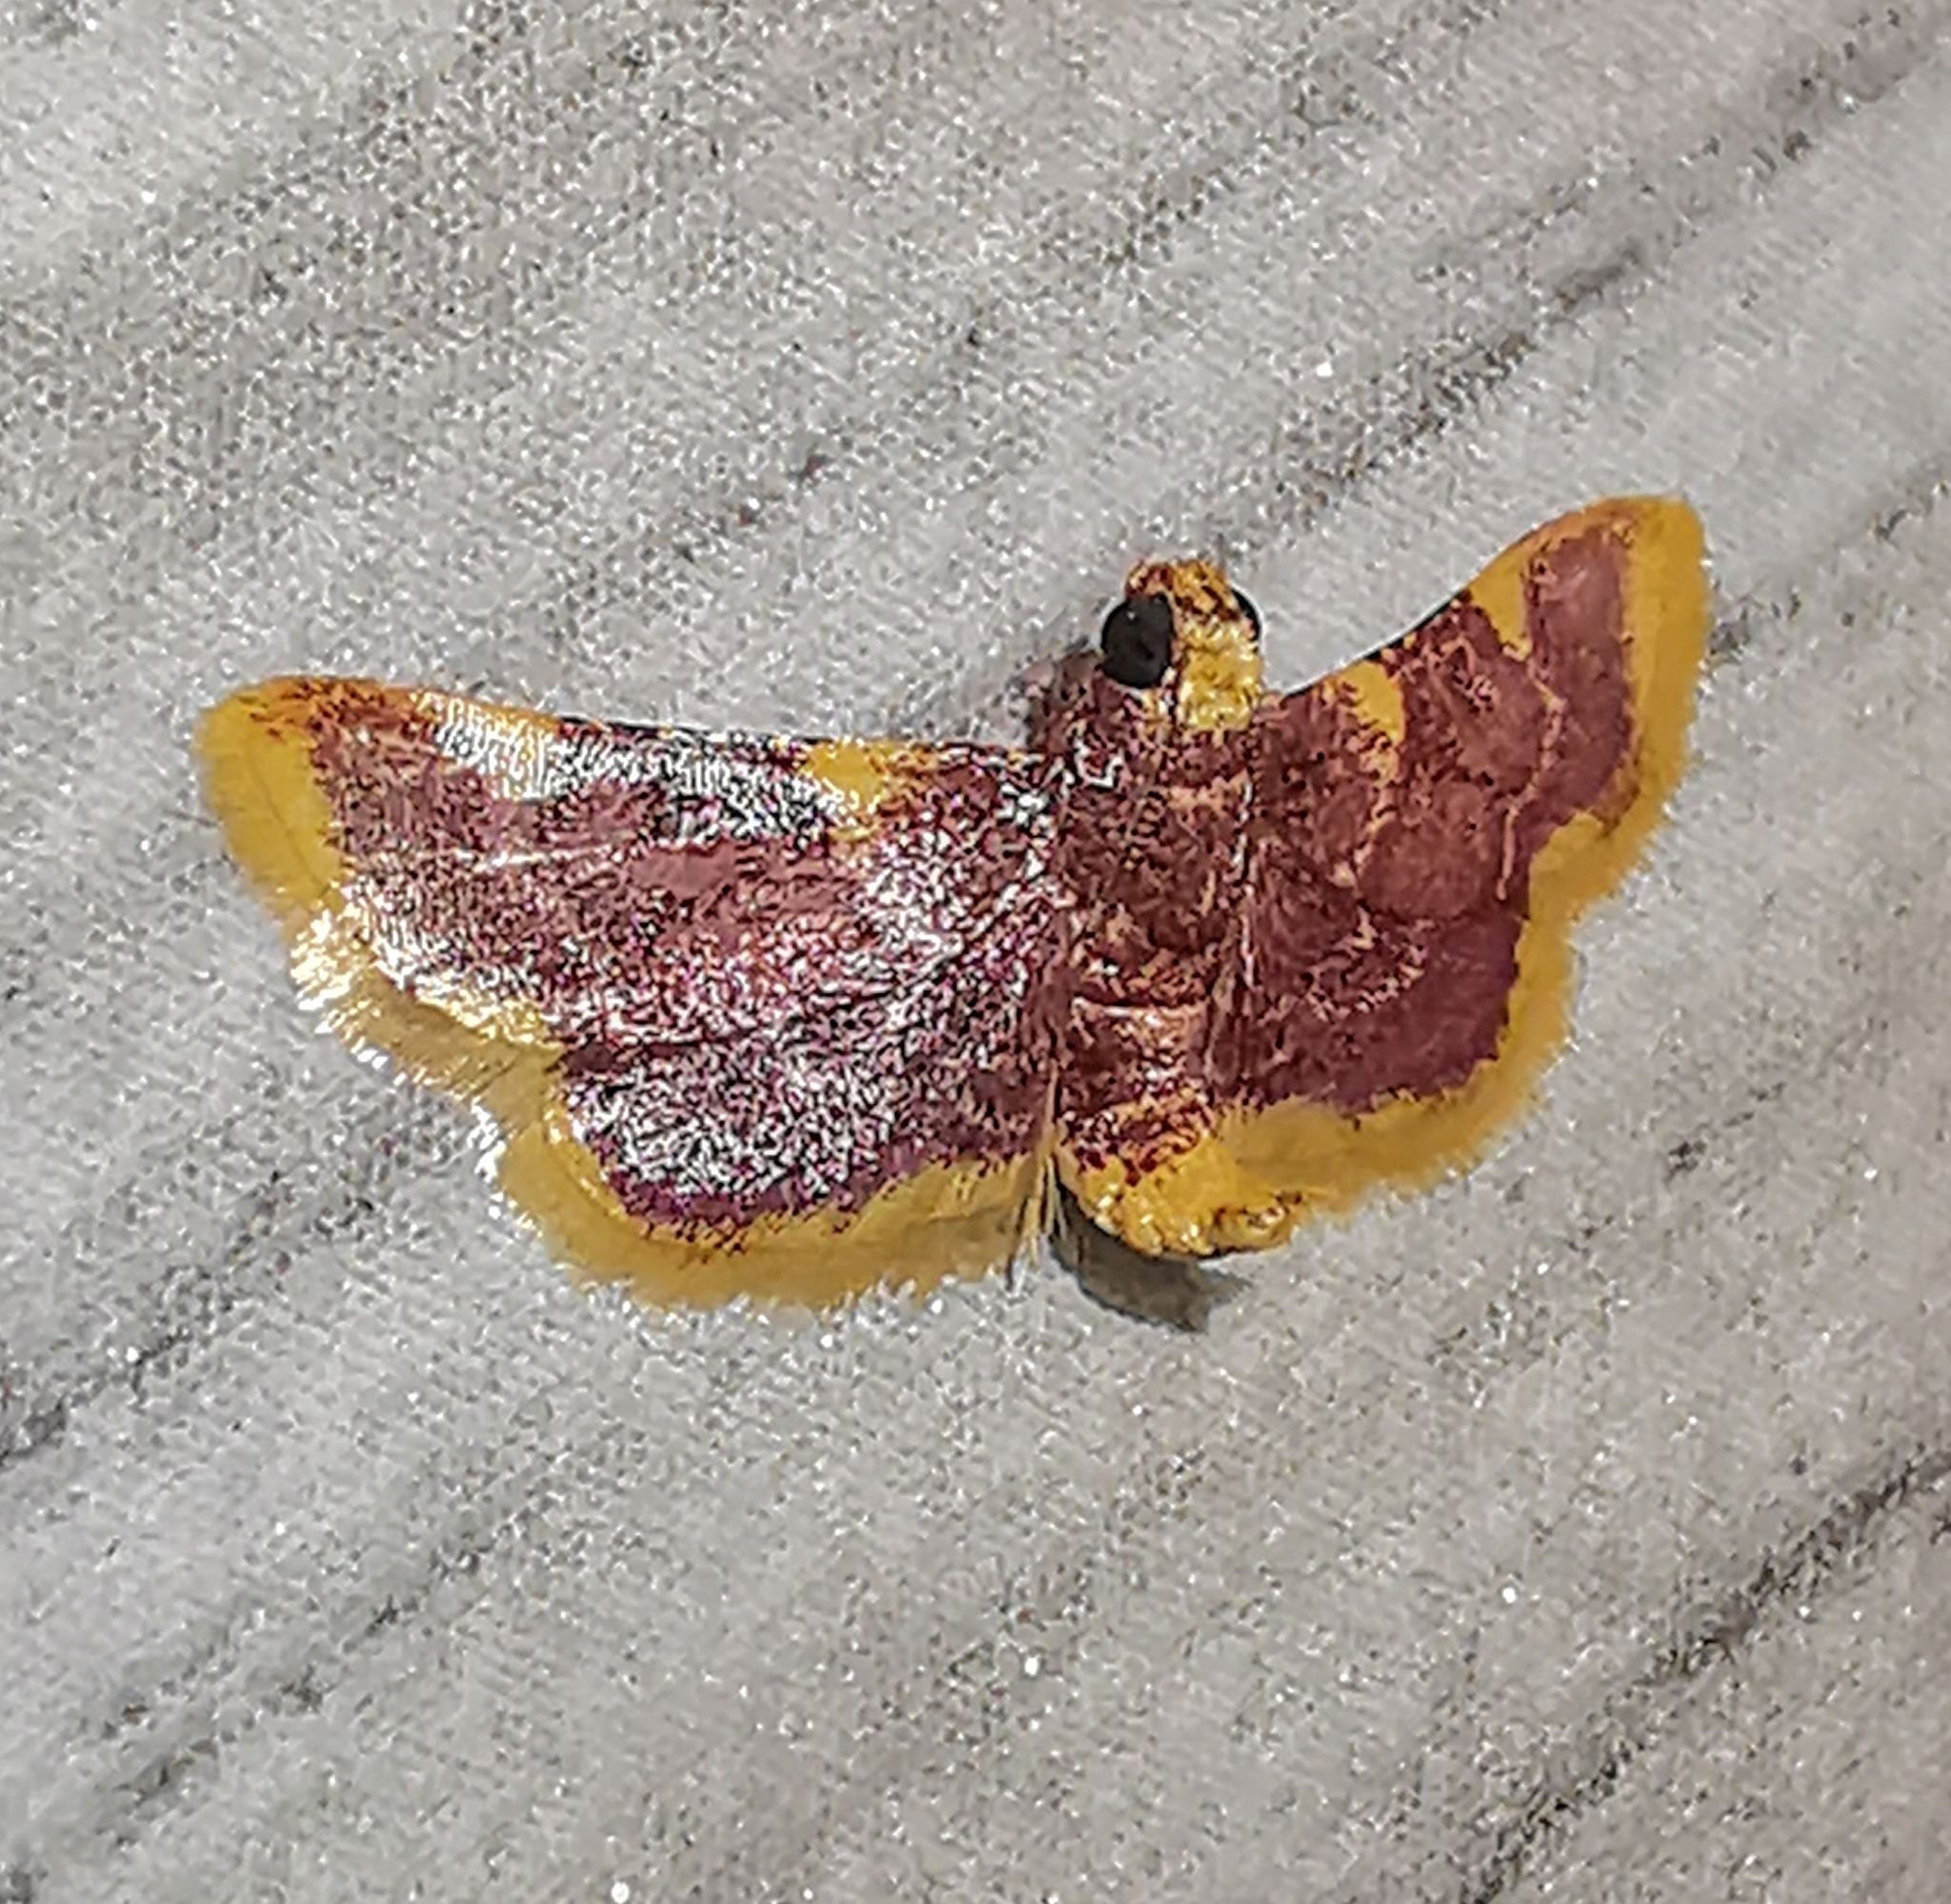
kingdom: Animalia
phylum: Arthropoda
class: Insecta
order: Lepidoptera
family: Pyralidae
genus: Hypsopygia
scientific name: Hypsopygia mauritialis
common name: Moth
